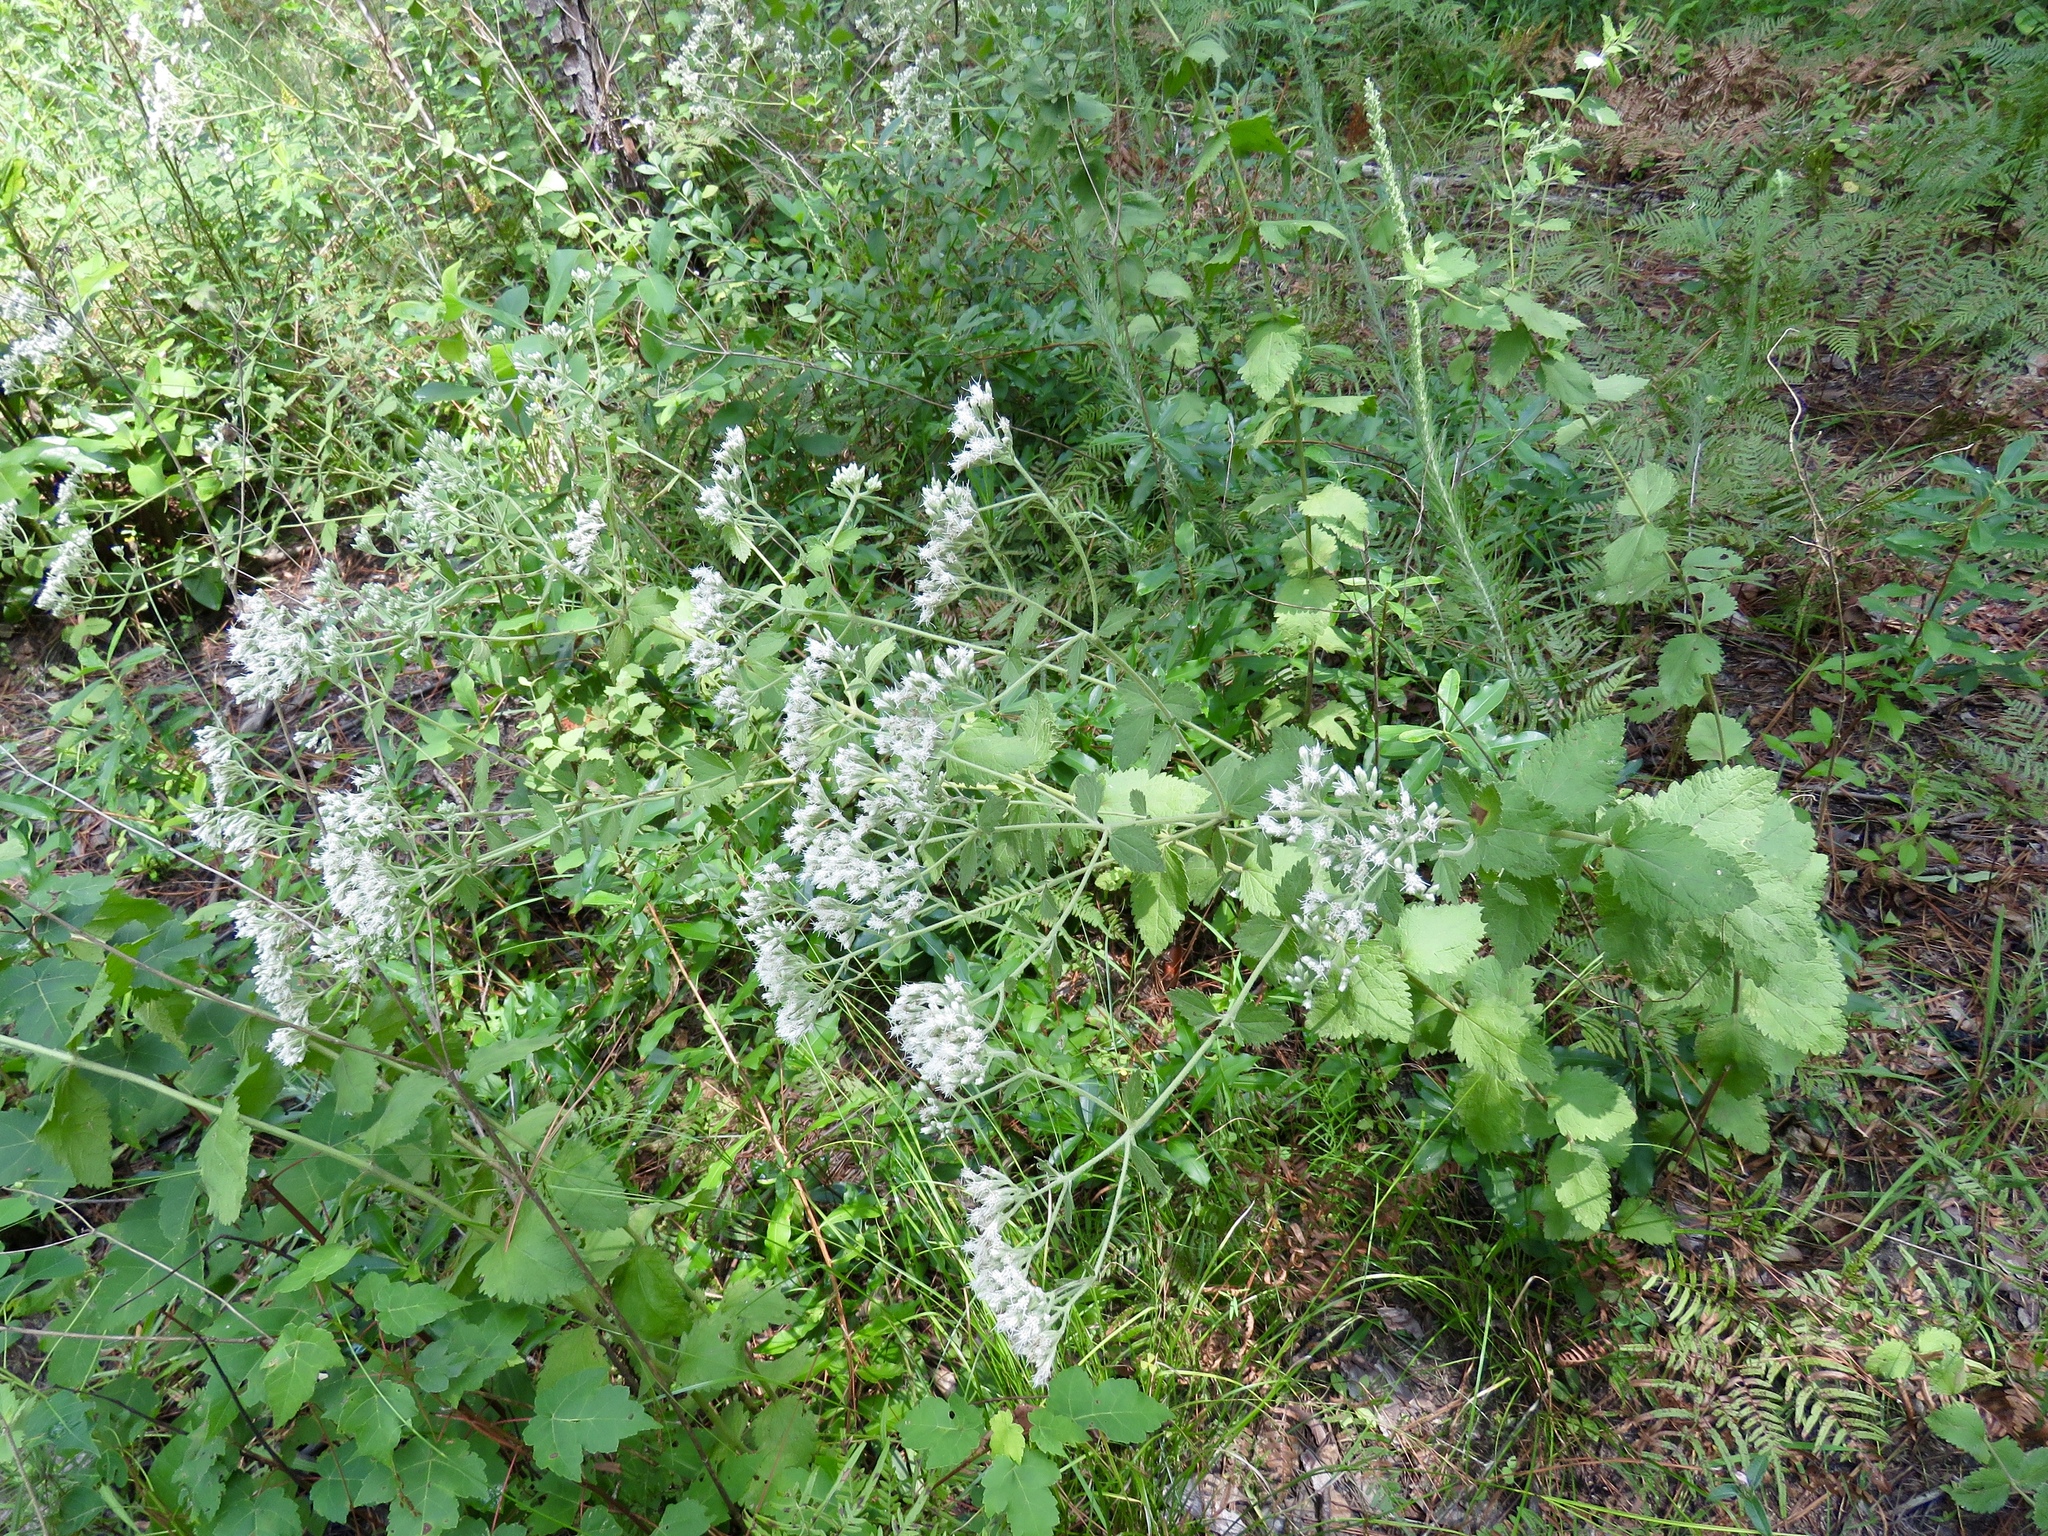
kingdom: Plantae
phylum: Tracheophyta
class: Magnoliopsida
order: Asterales
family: Asteraceae
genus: Eupatorium
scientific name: Eupatorium rotundifolium
